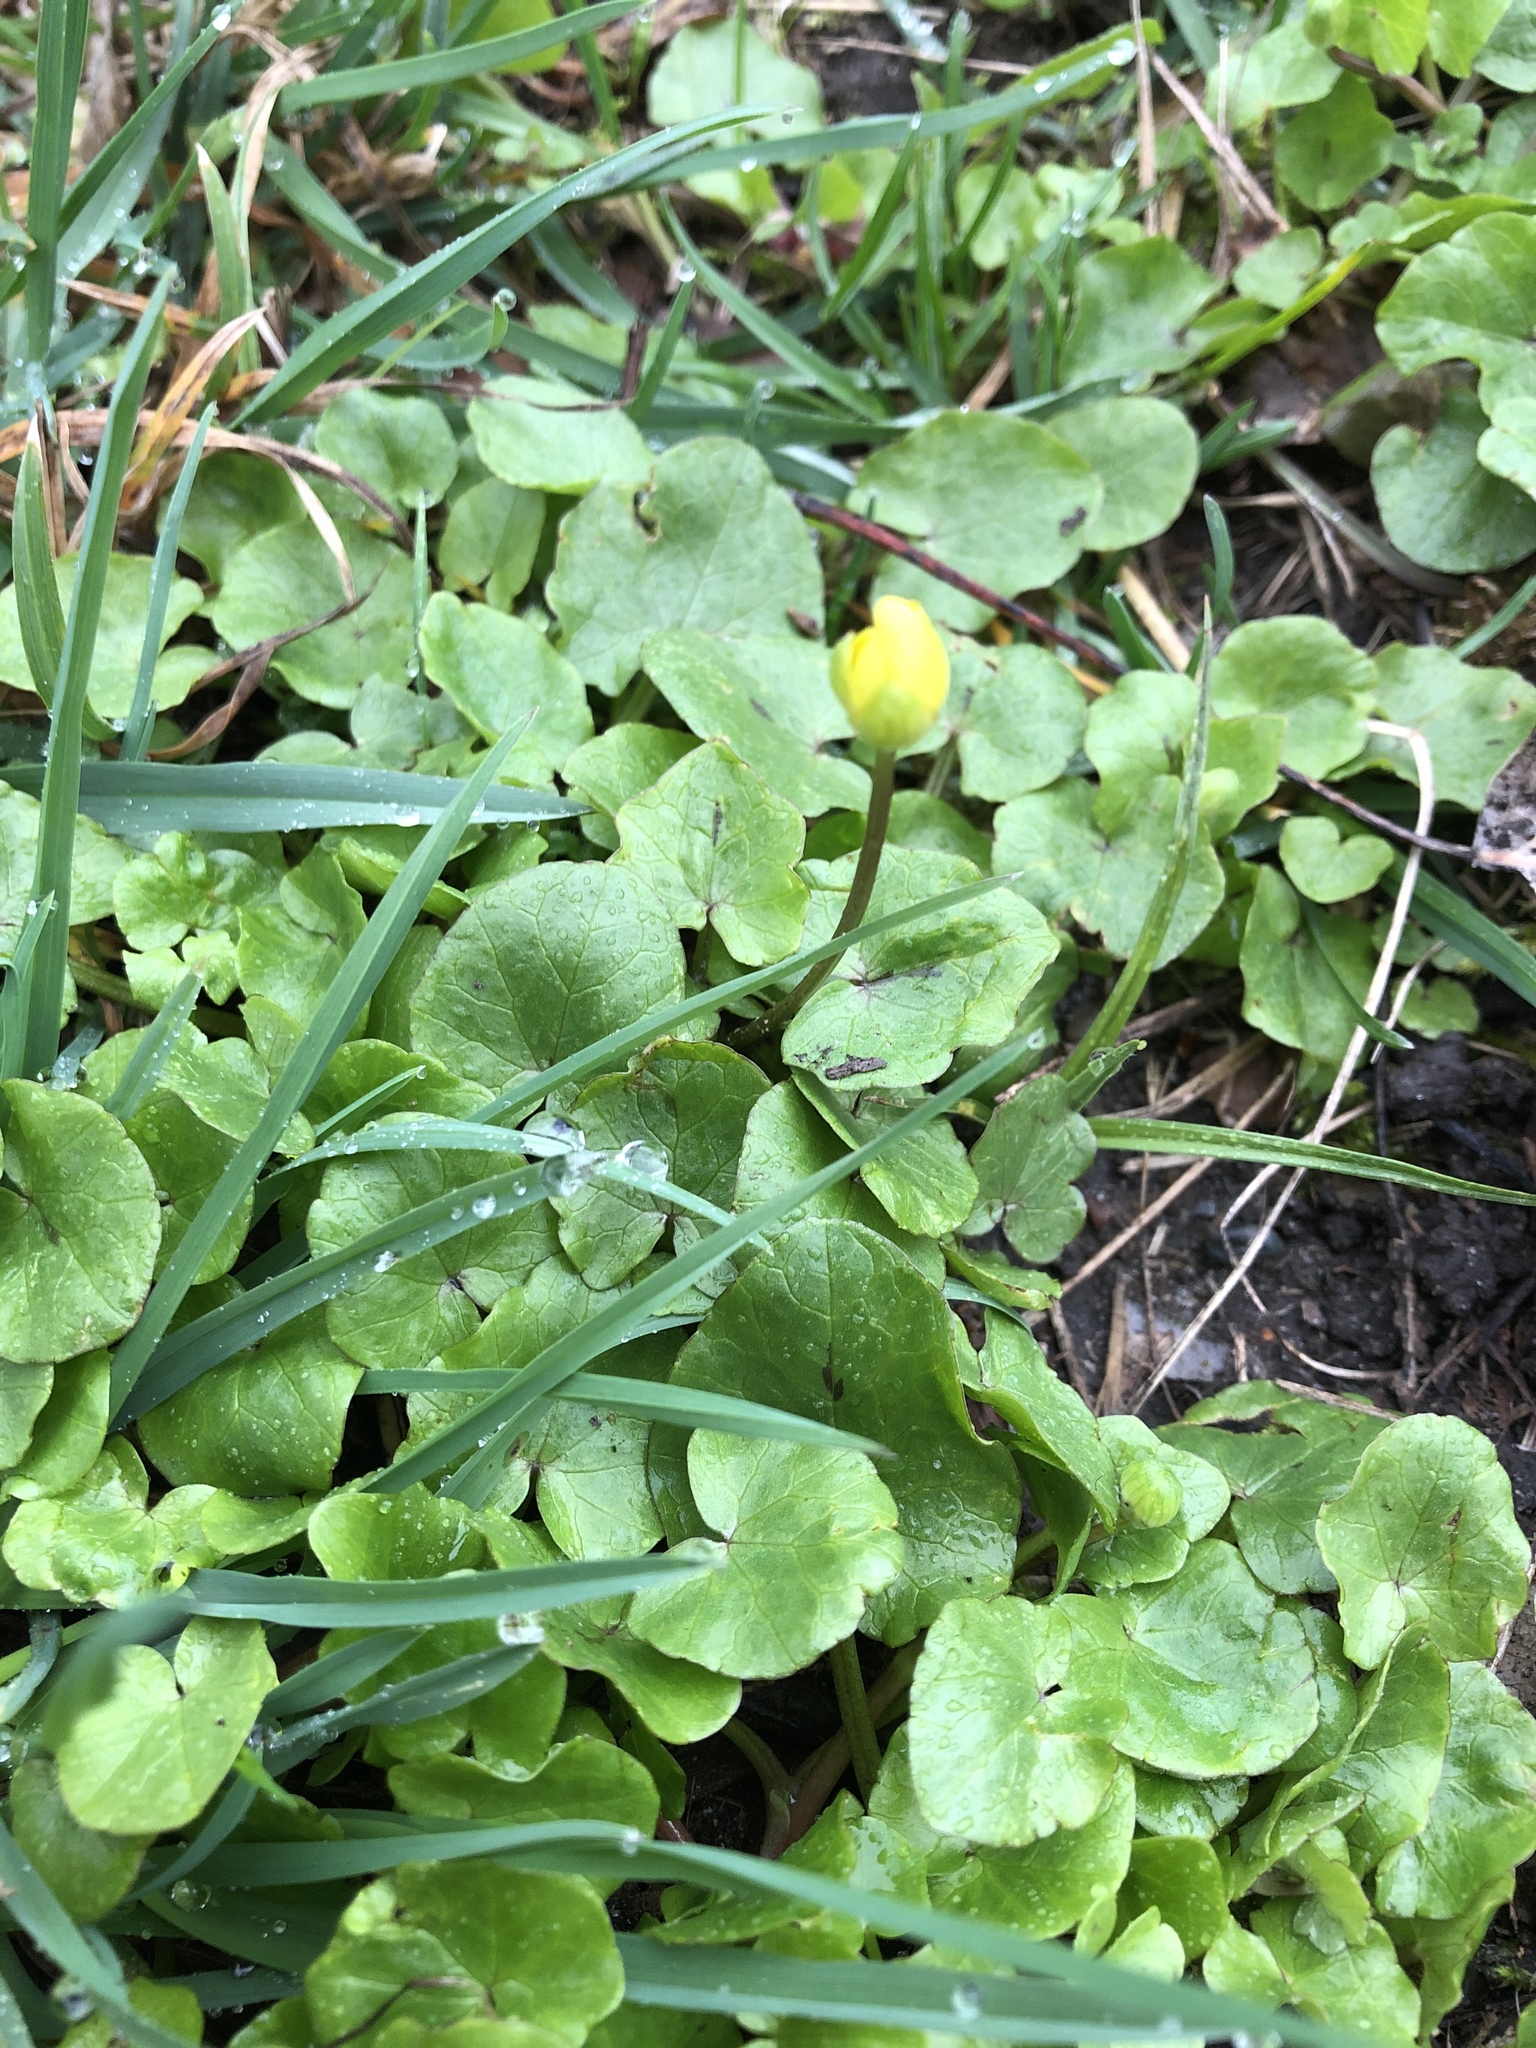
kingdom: Plantae
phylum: Tracheophyta
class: Magnoliopsida
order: Ranunculales
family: Ranunculaceae
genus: Ficaria
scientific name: Ficaria verna
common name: Lesser celandine
